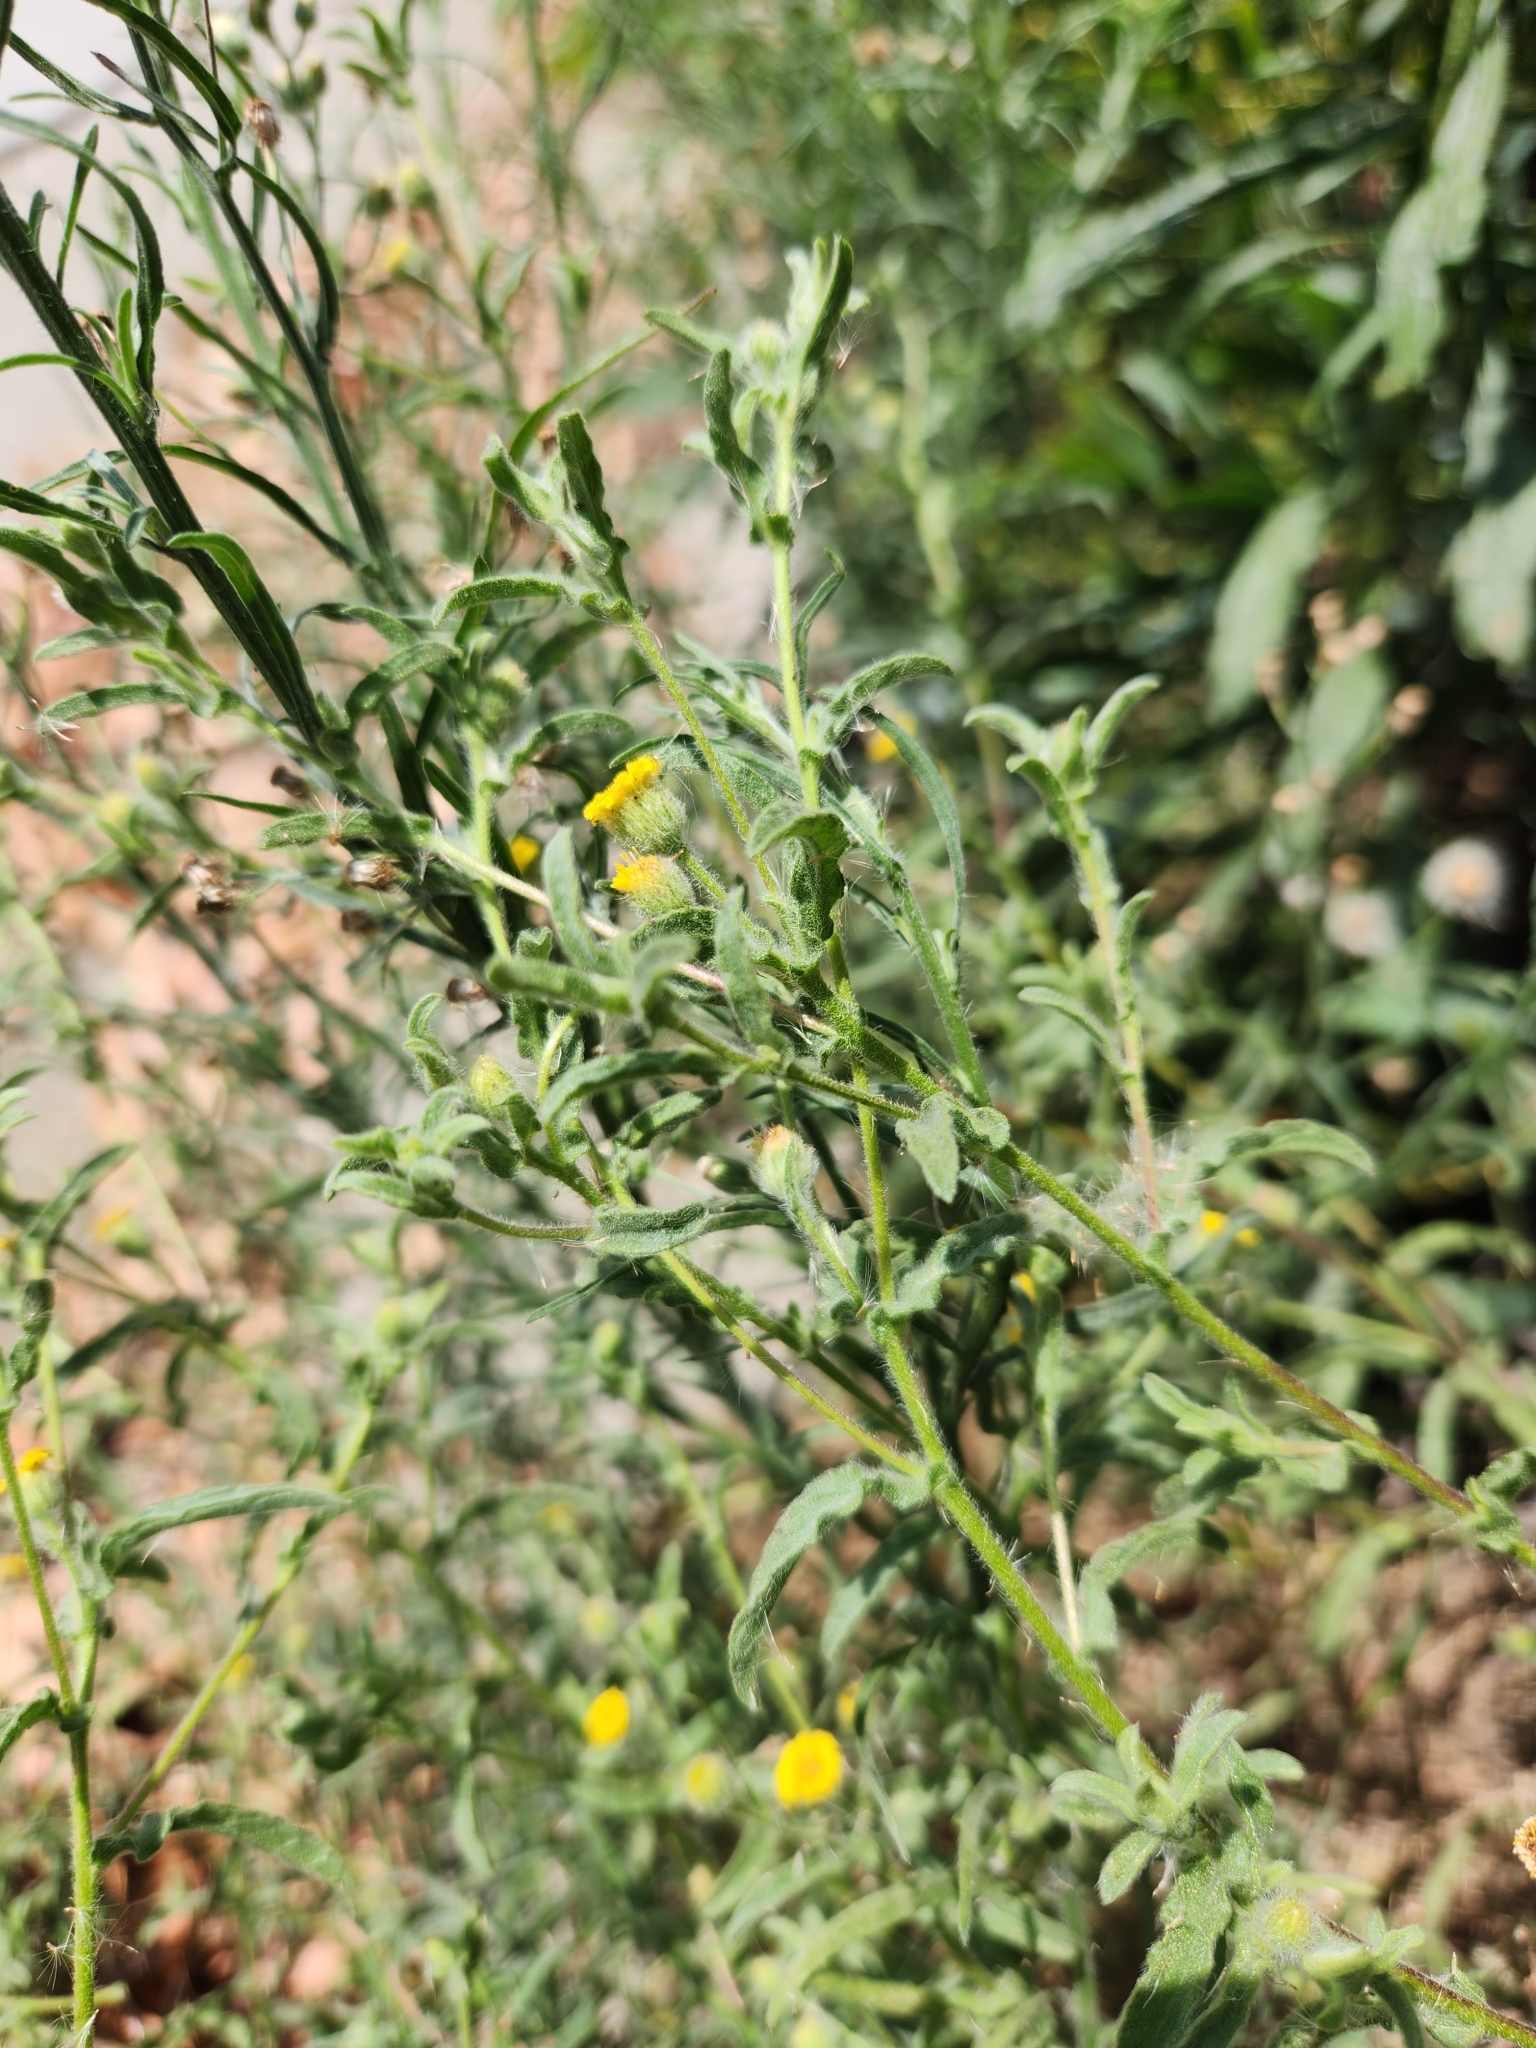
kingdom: Plantae
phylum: Tracheophyta
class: Magnoliopsida
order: Asterales
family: Asteraceae
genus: Pulicaria
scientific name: Pulicaria paludosa
